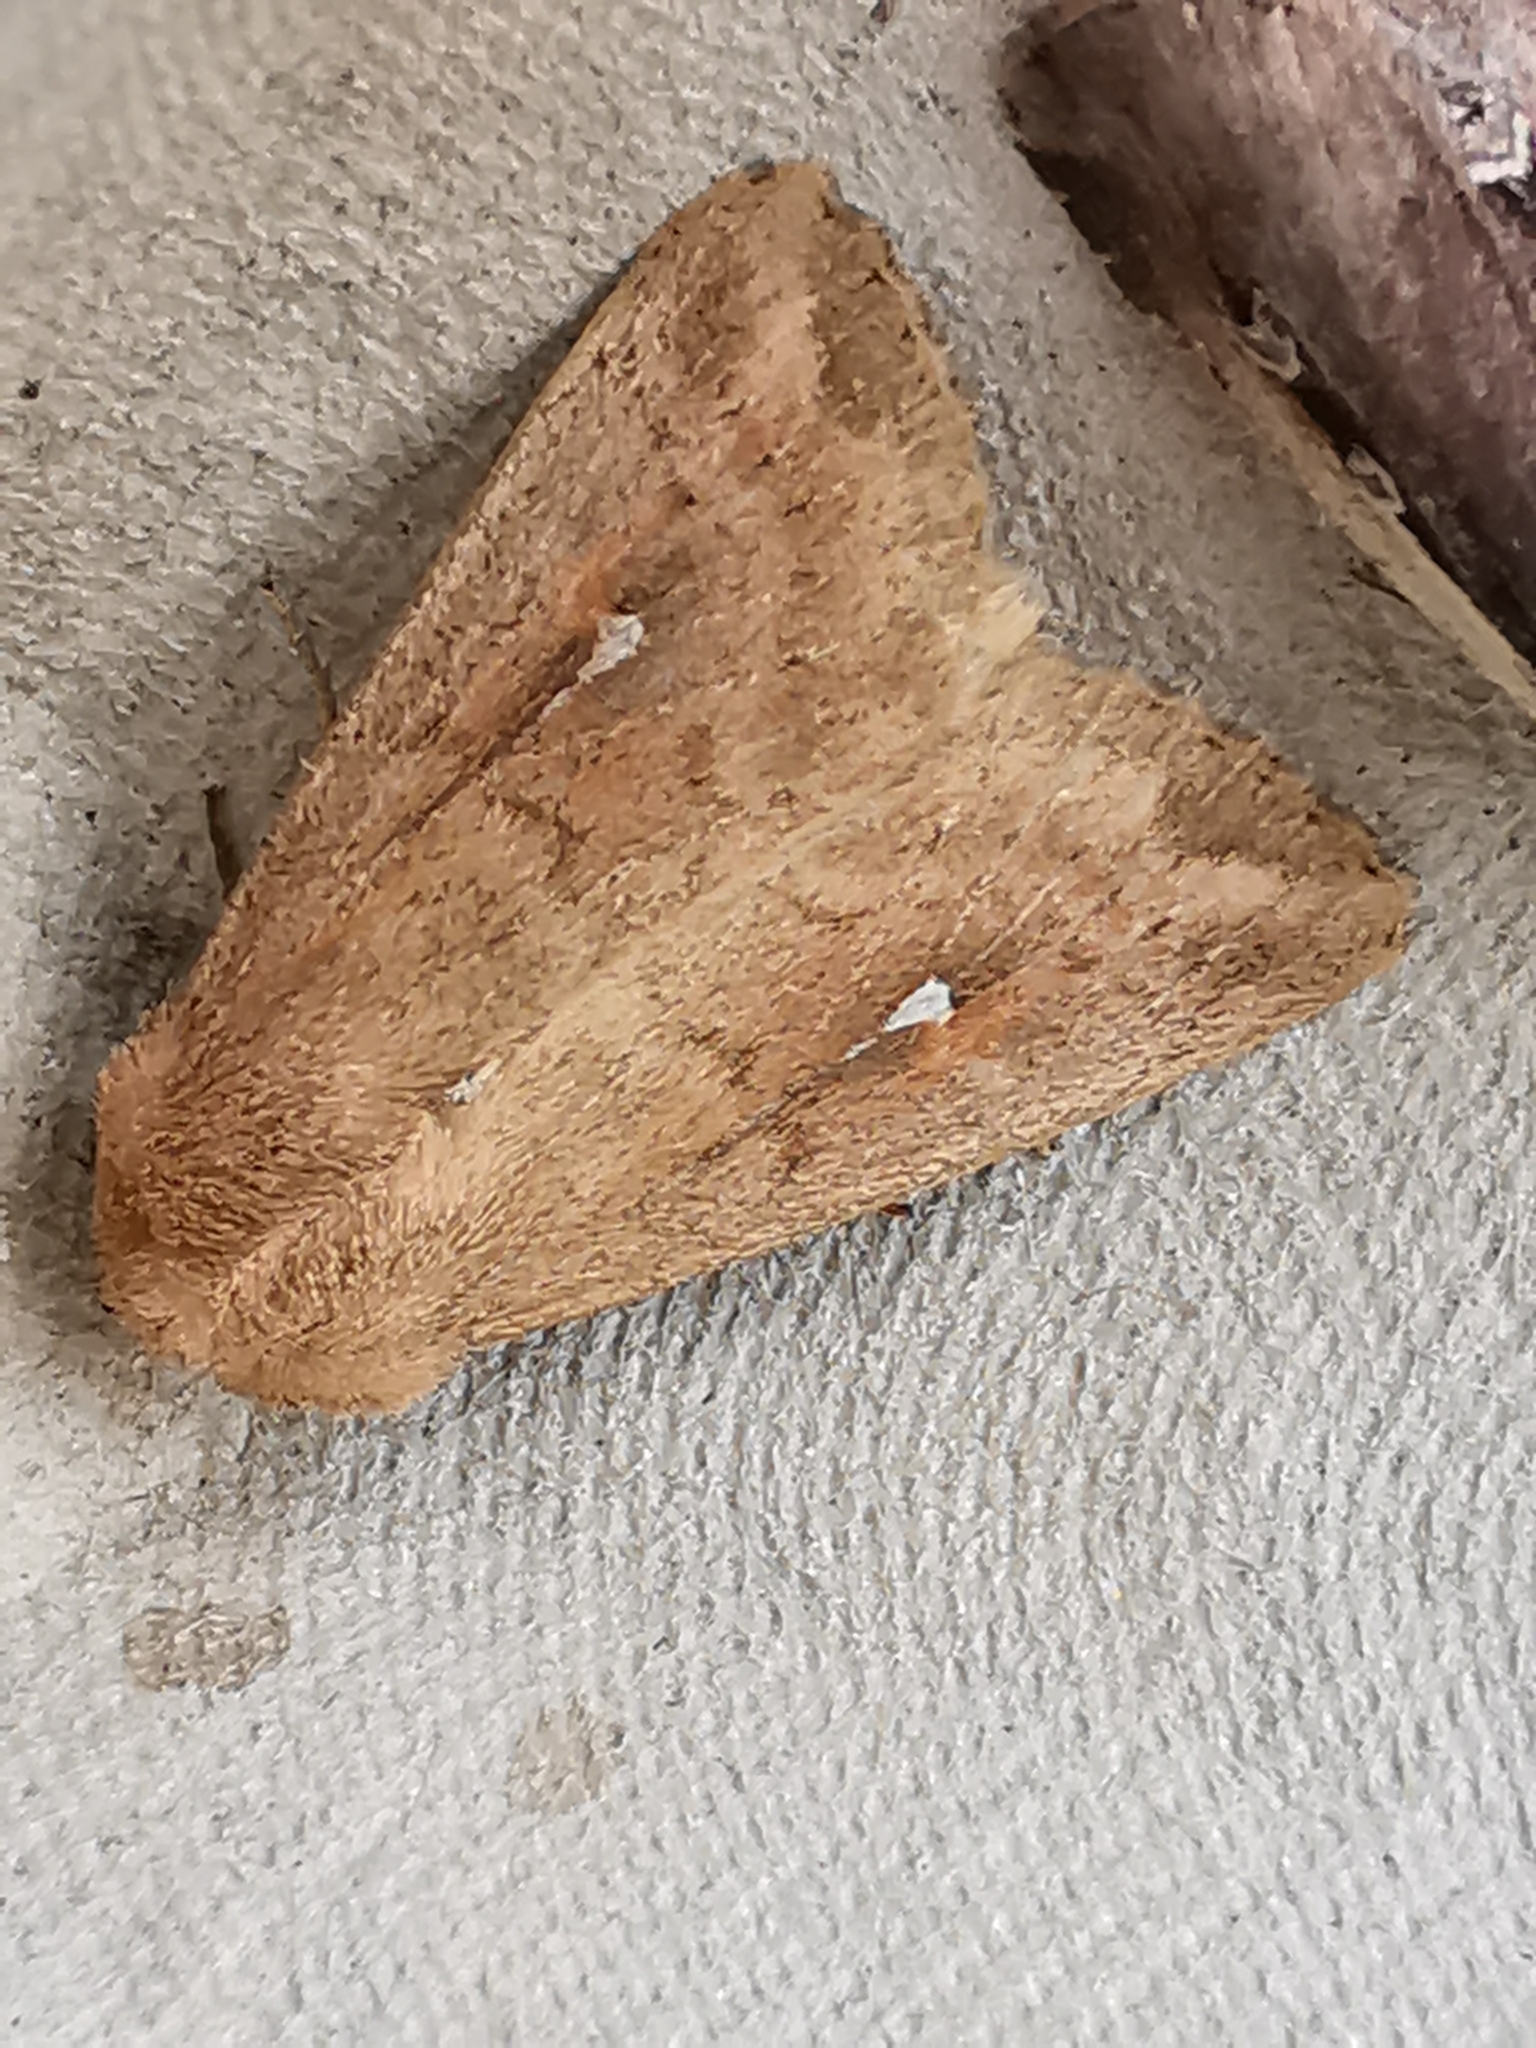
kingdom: Animalia
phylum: Arthropoda
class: Insecta
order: Lepidoptera
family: Noctuidae
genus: Mythimna
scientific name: Mythimna albipuncta
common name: White-point
